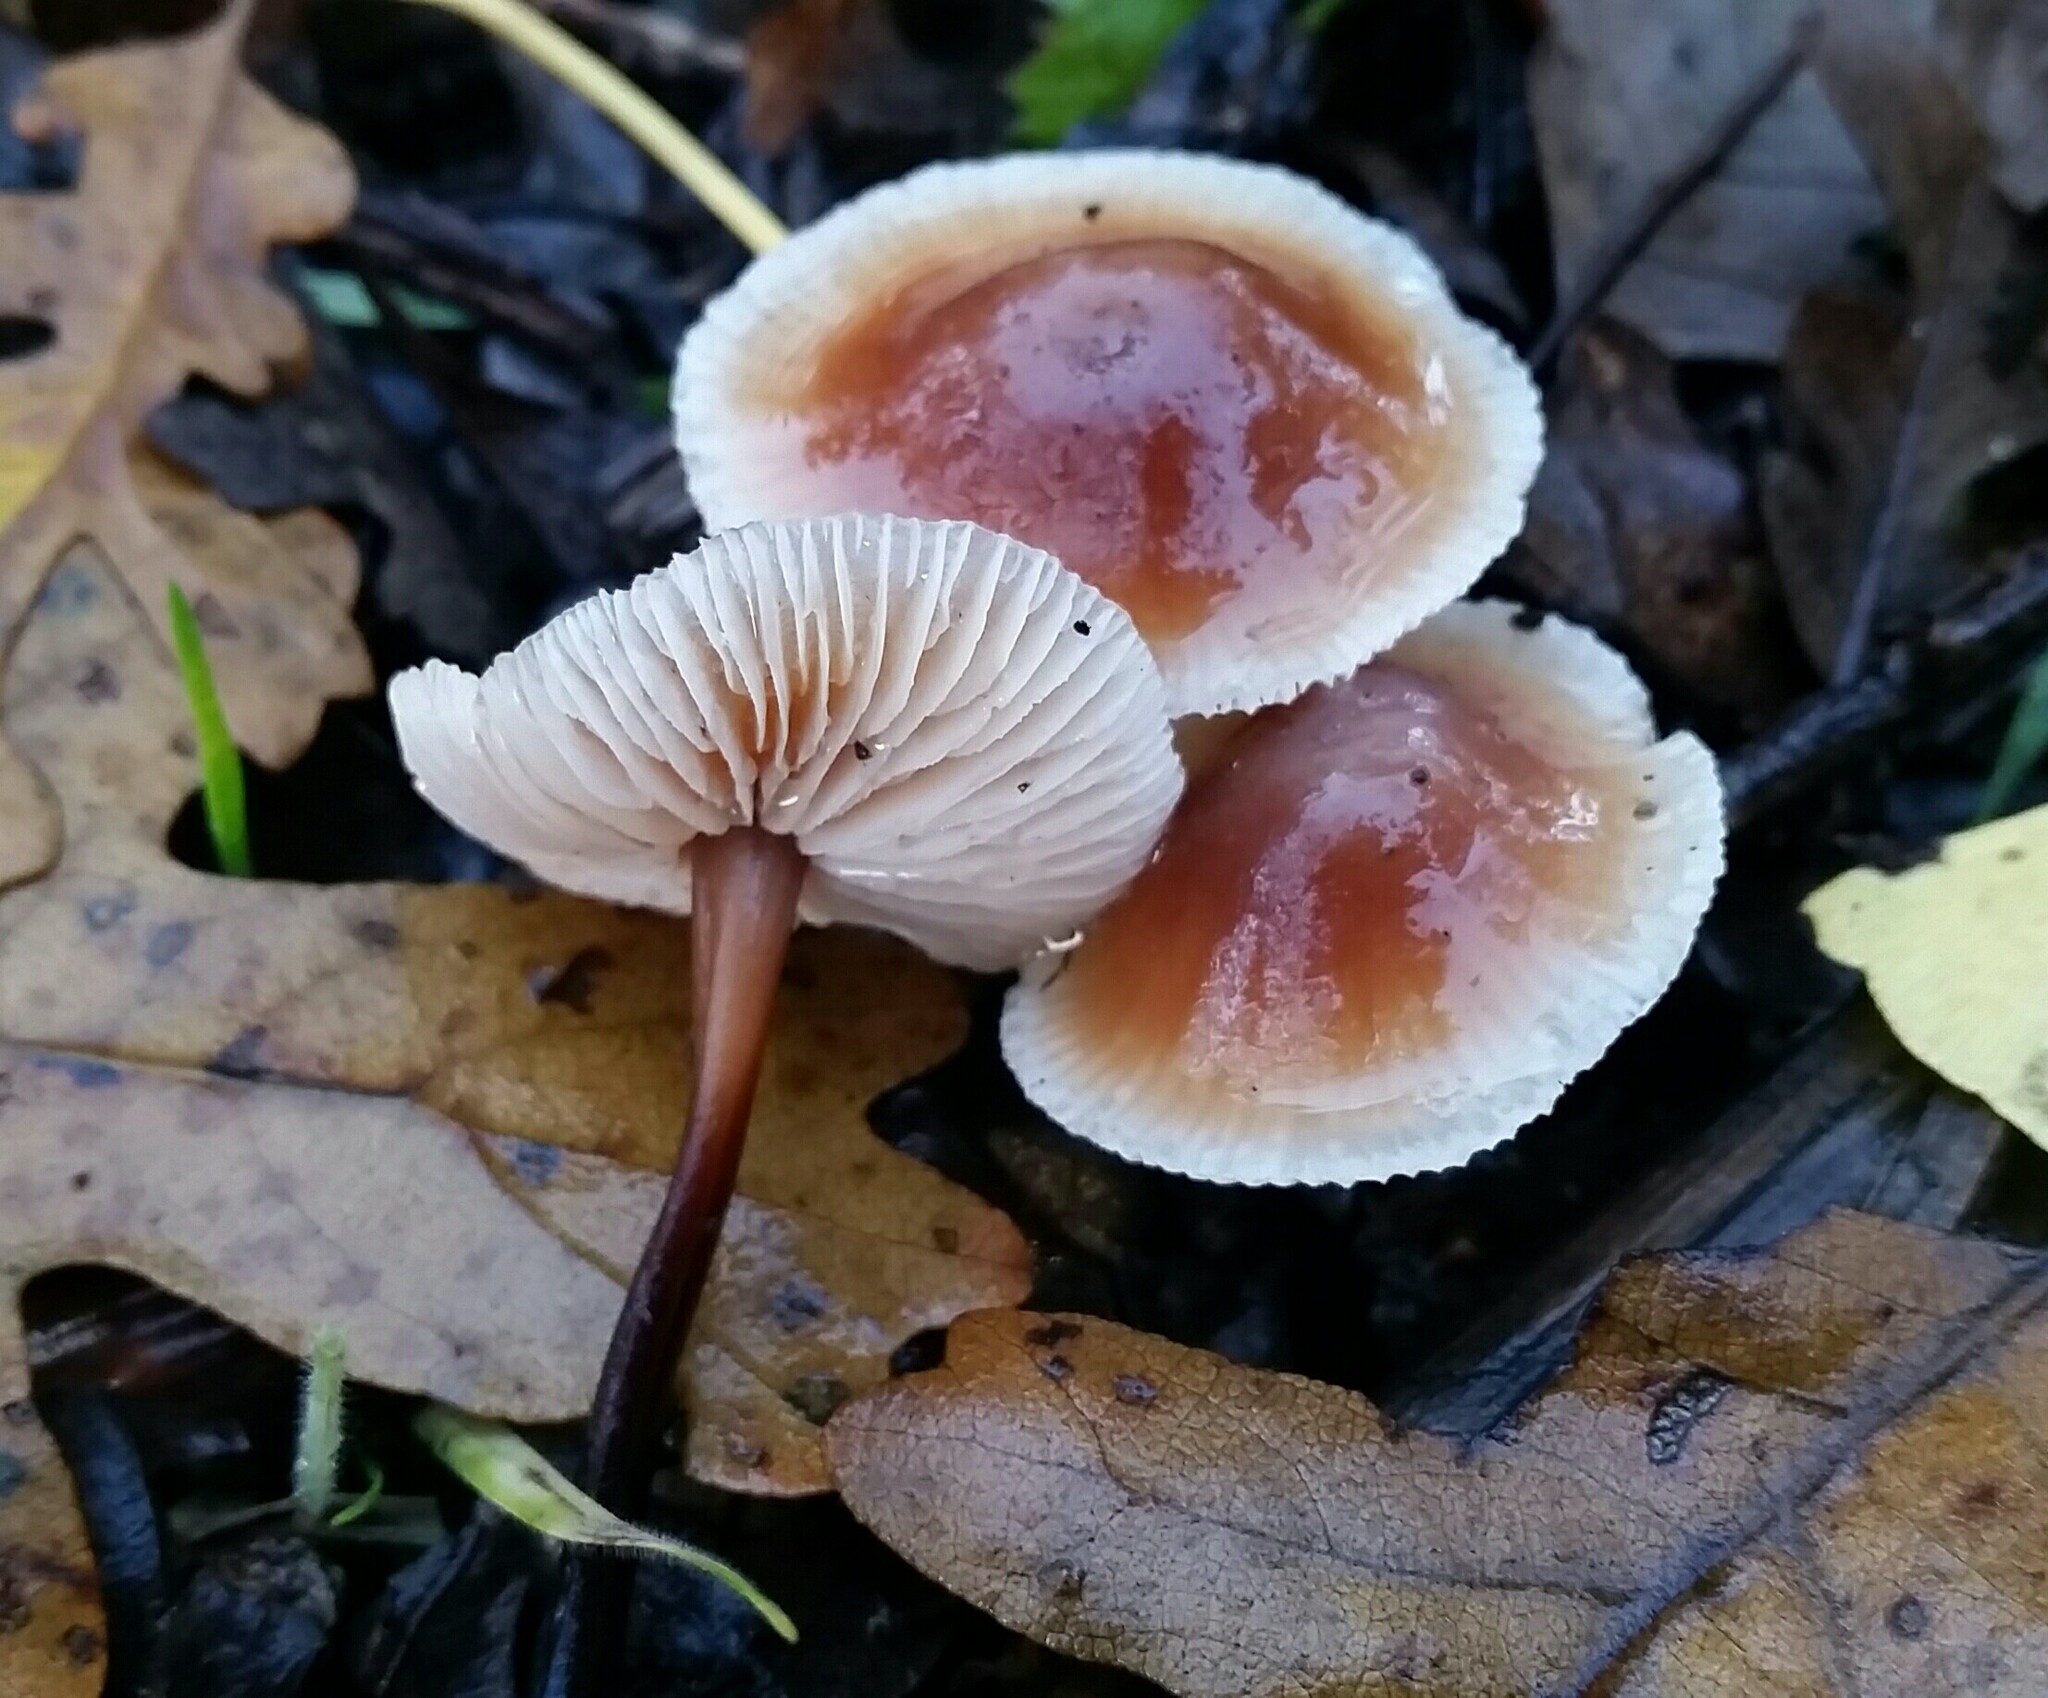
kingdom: Fungi
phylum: Basidiomycota
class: Agaricomycetes
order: Agaricales
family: Omphalotaceae
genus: Gymnopus
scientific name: Gymnopus brassicolens
